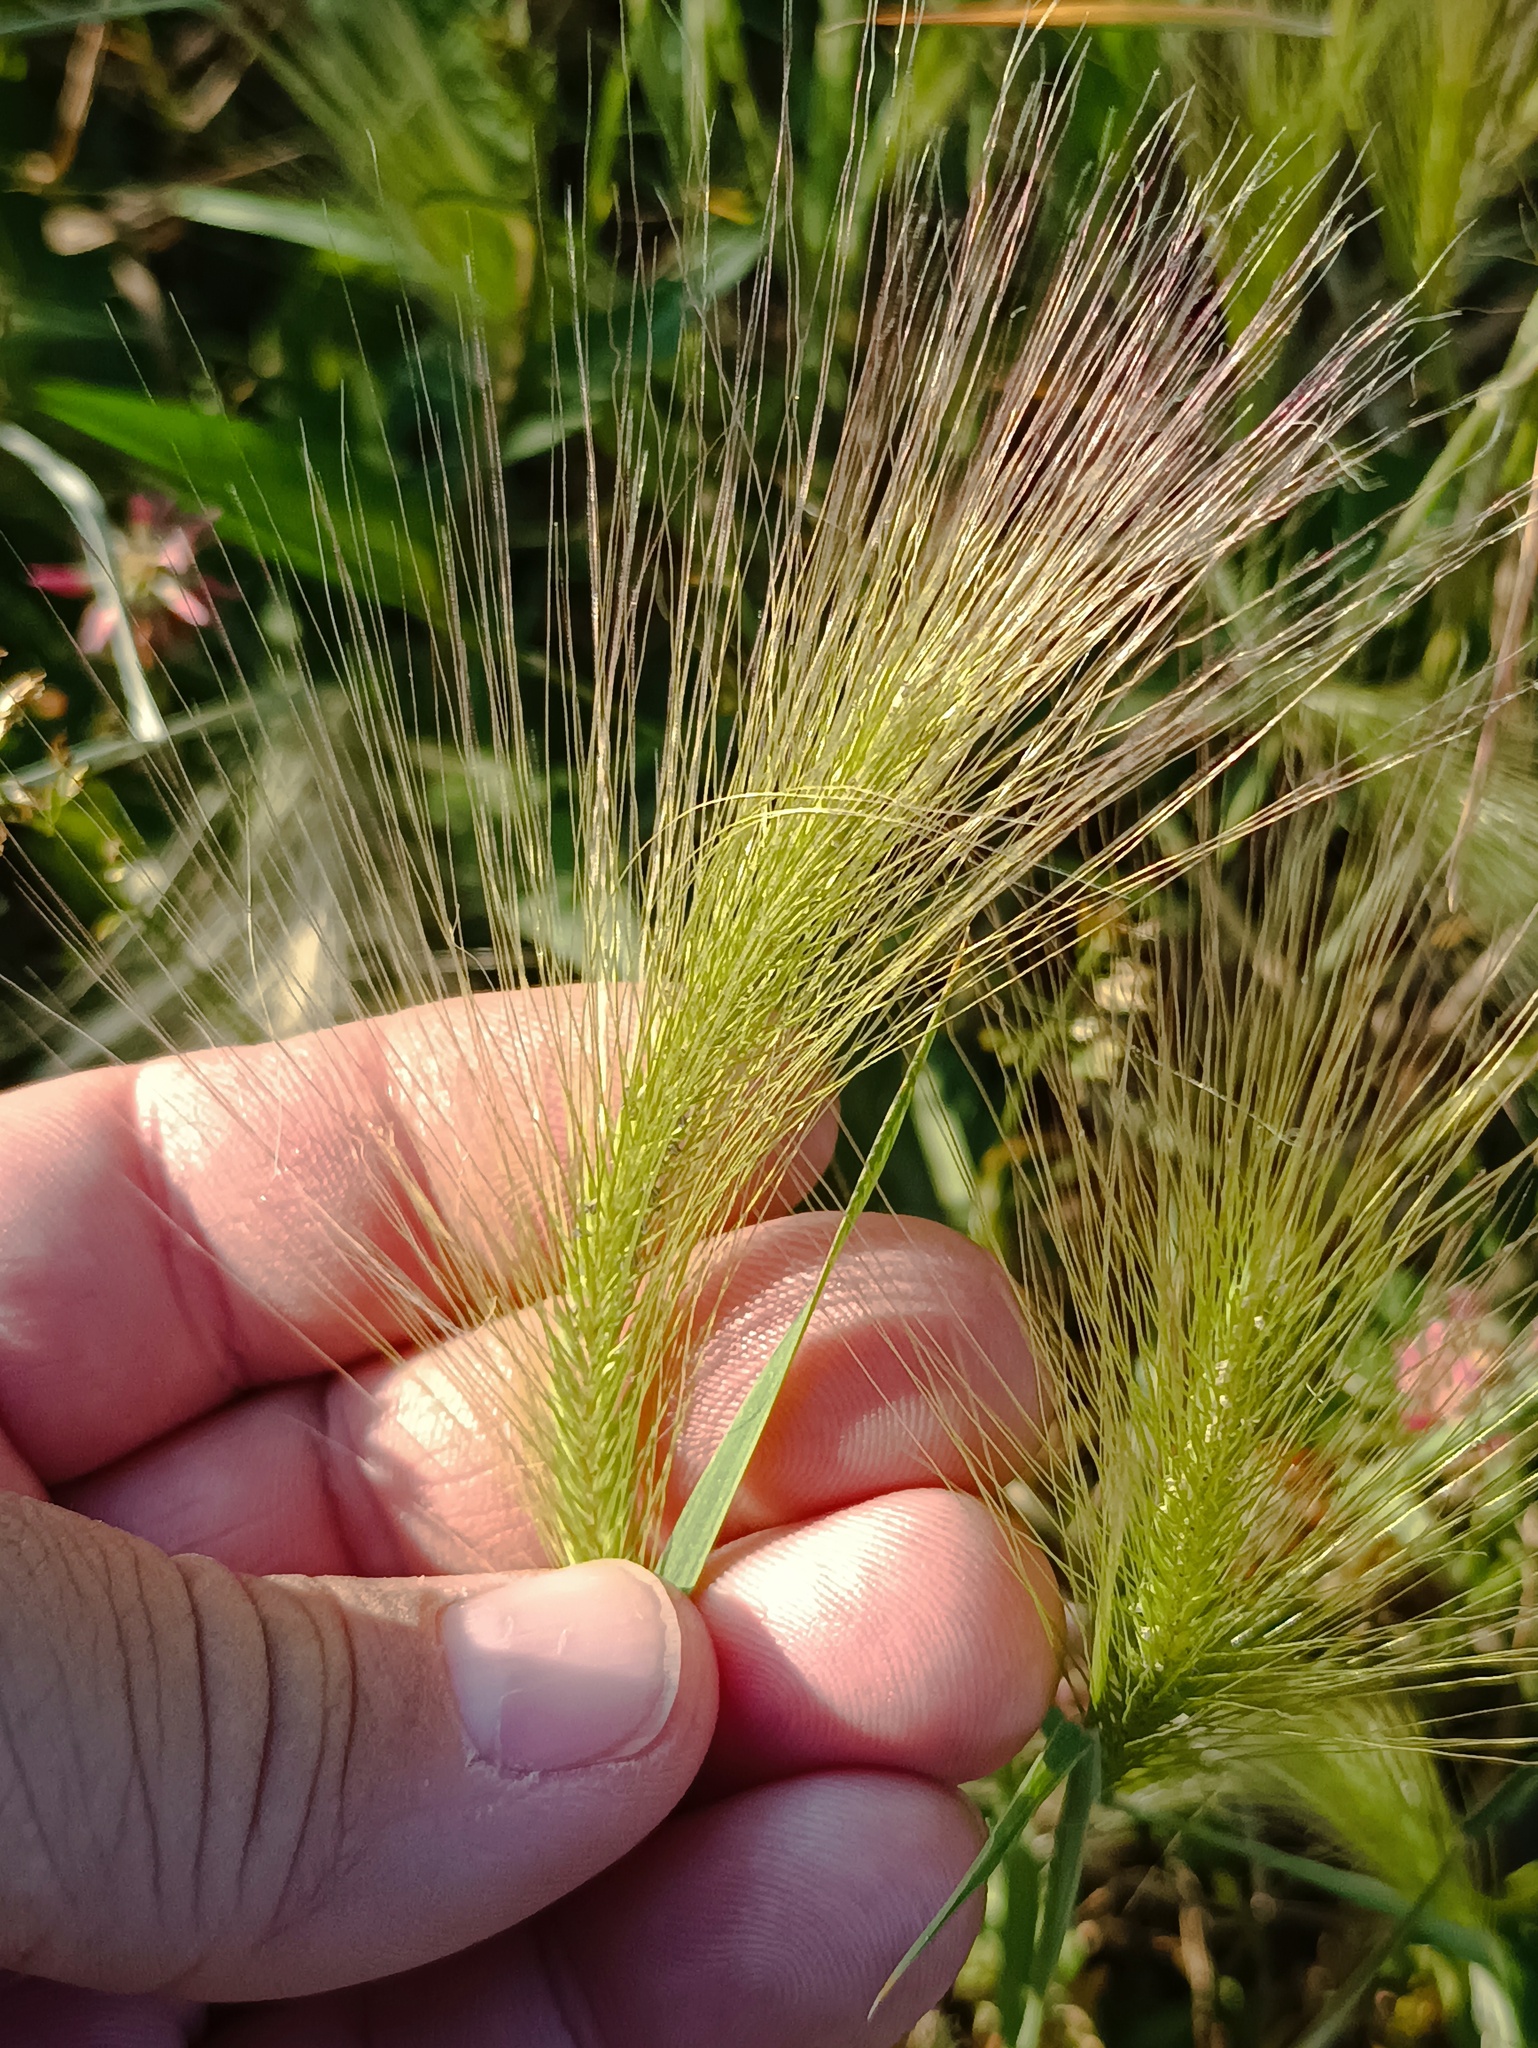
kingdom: Plantae
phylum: Tracheophyta
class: Liliopsida
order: Poales
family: Poaceae
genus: Hordeum
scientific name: Hordeum jubatum
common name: Foxtail barley
